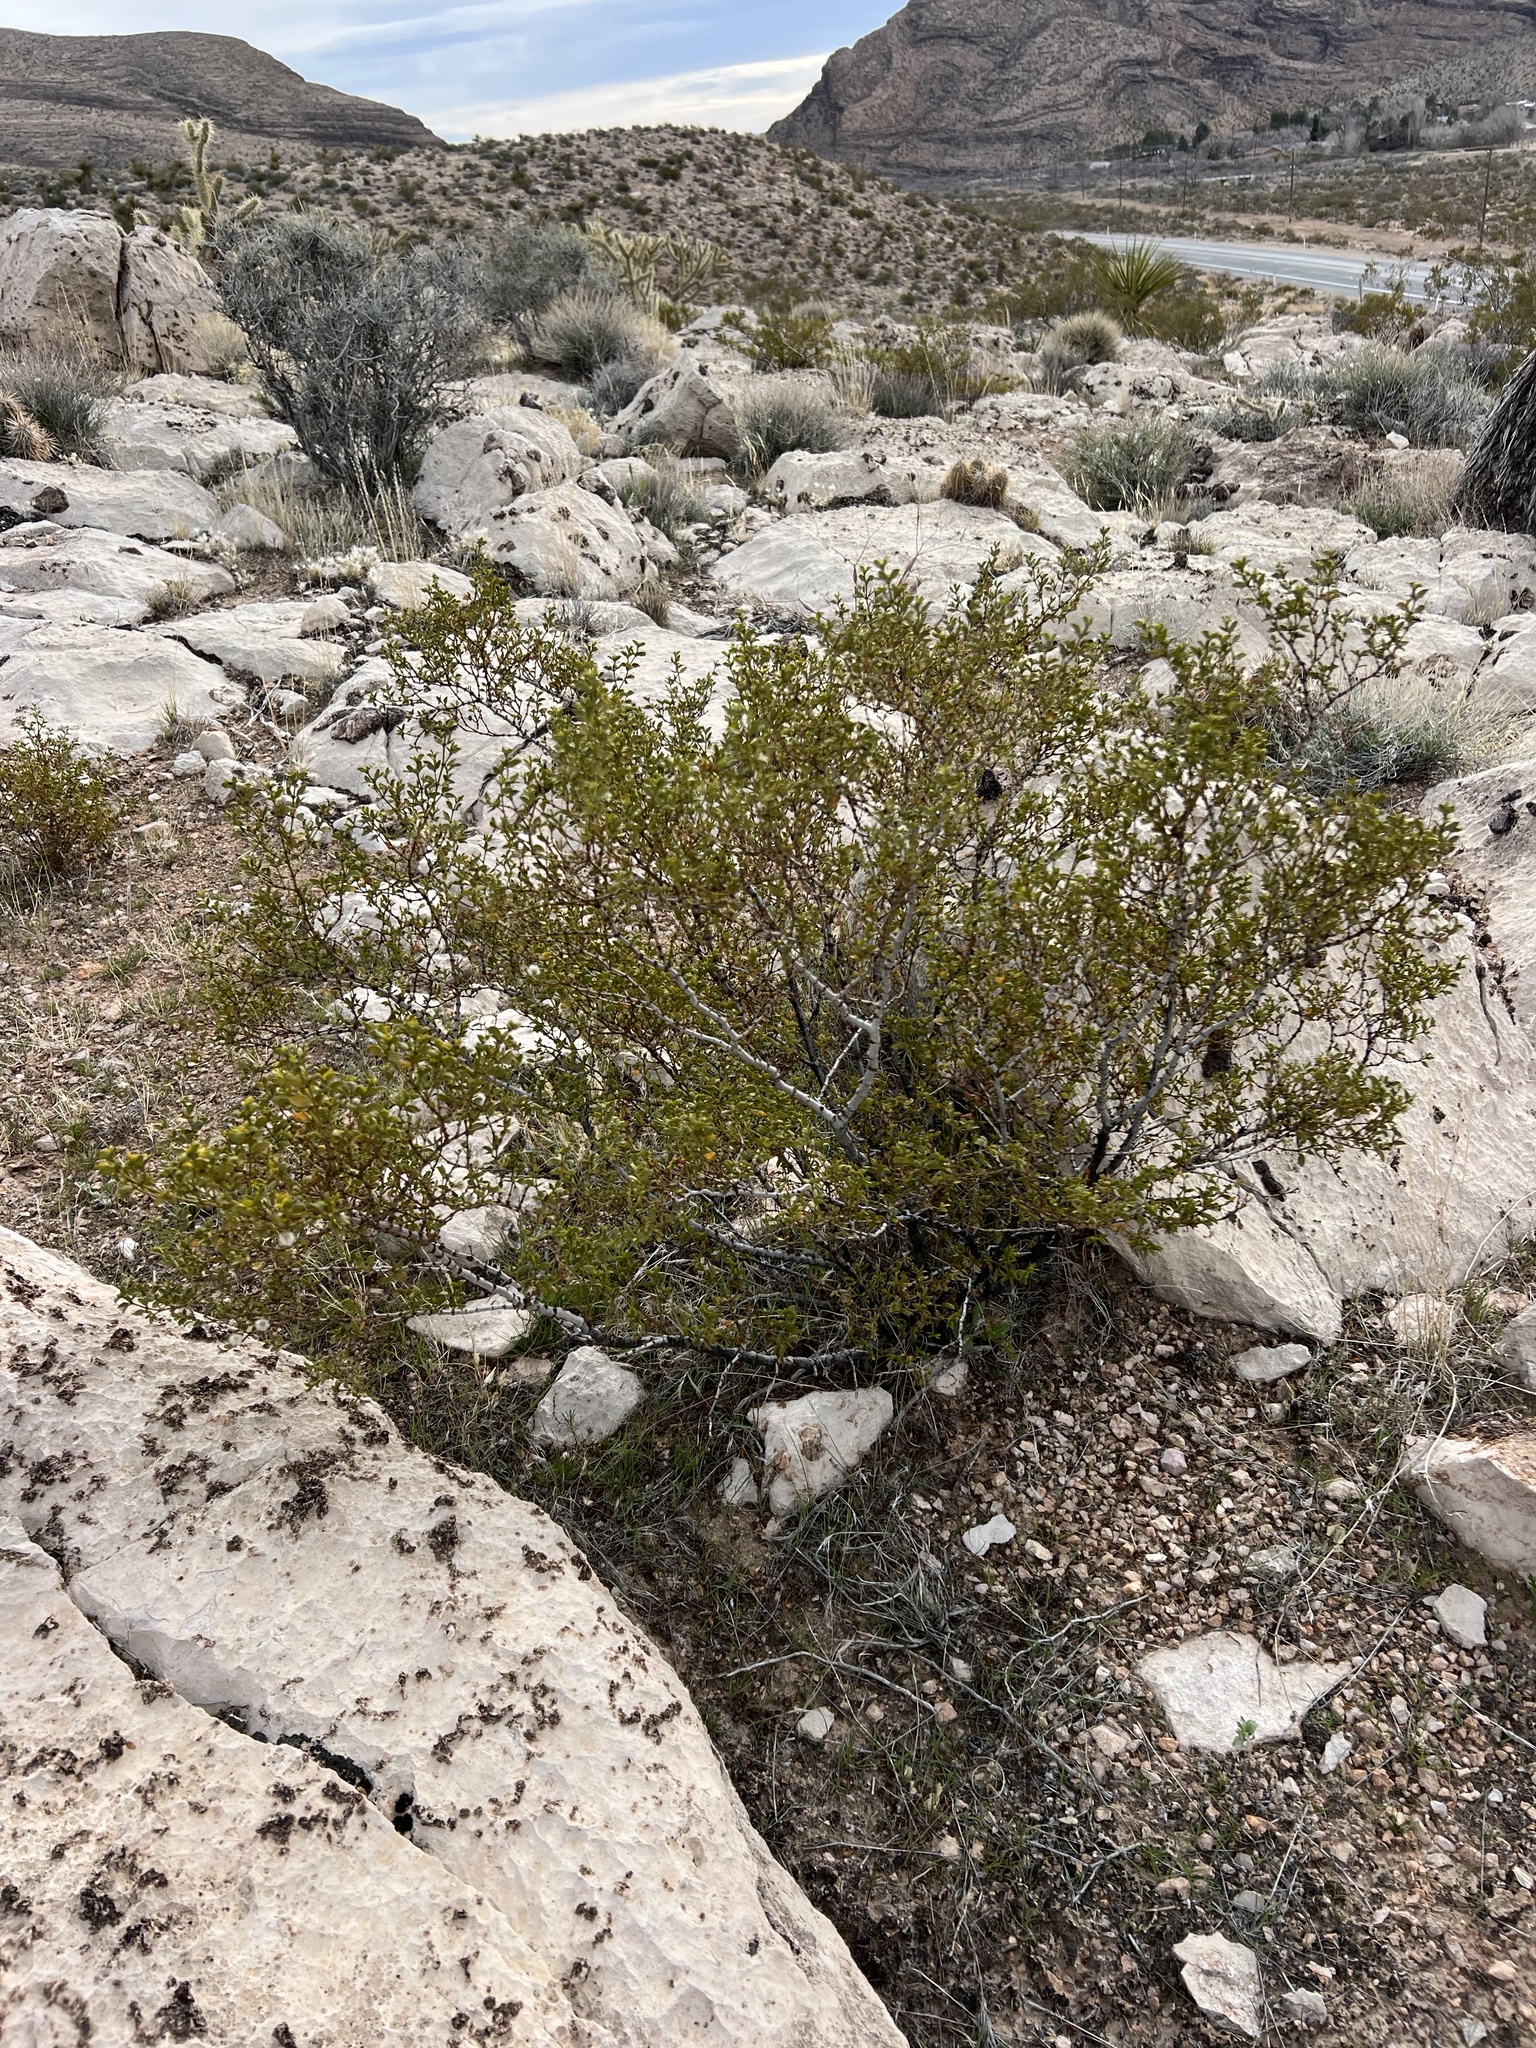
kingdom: Plantae
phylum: Tracheophyta
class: Magnoliopsida
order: Zygophyllales
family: Zygophyllaceae
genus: Larrea
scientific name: Larrea tridentata
